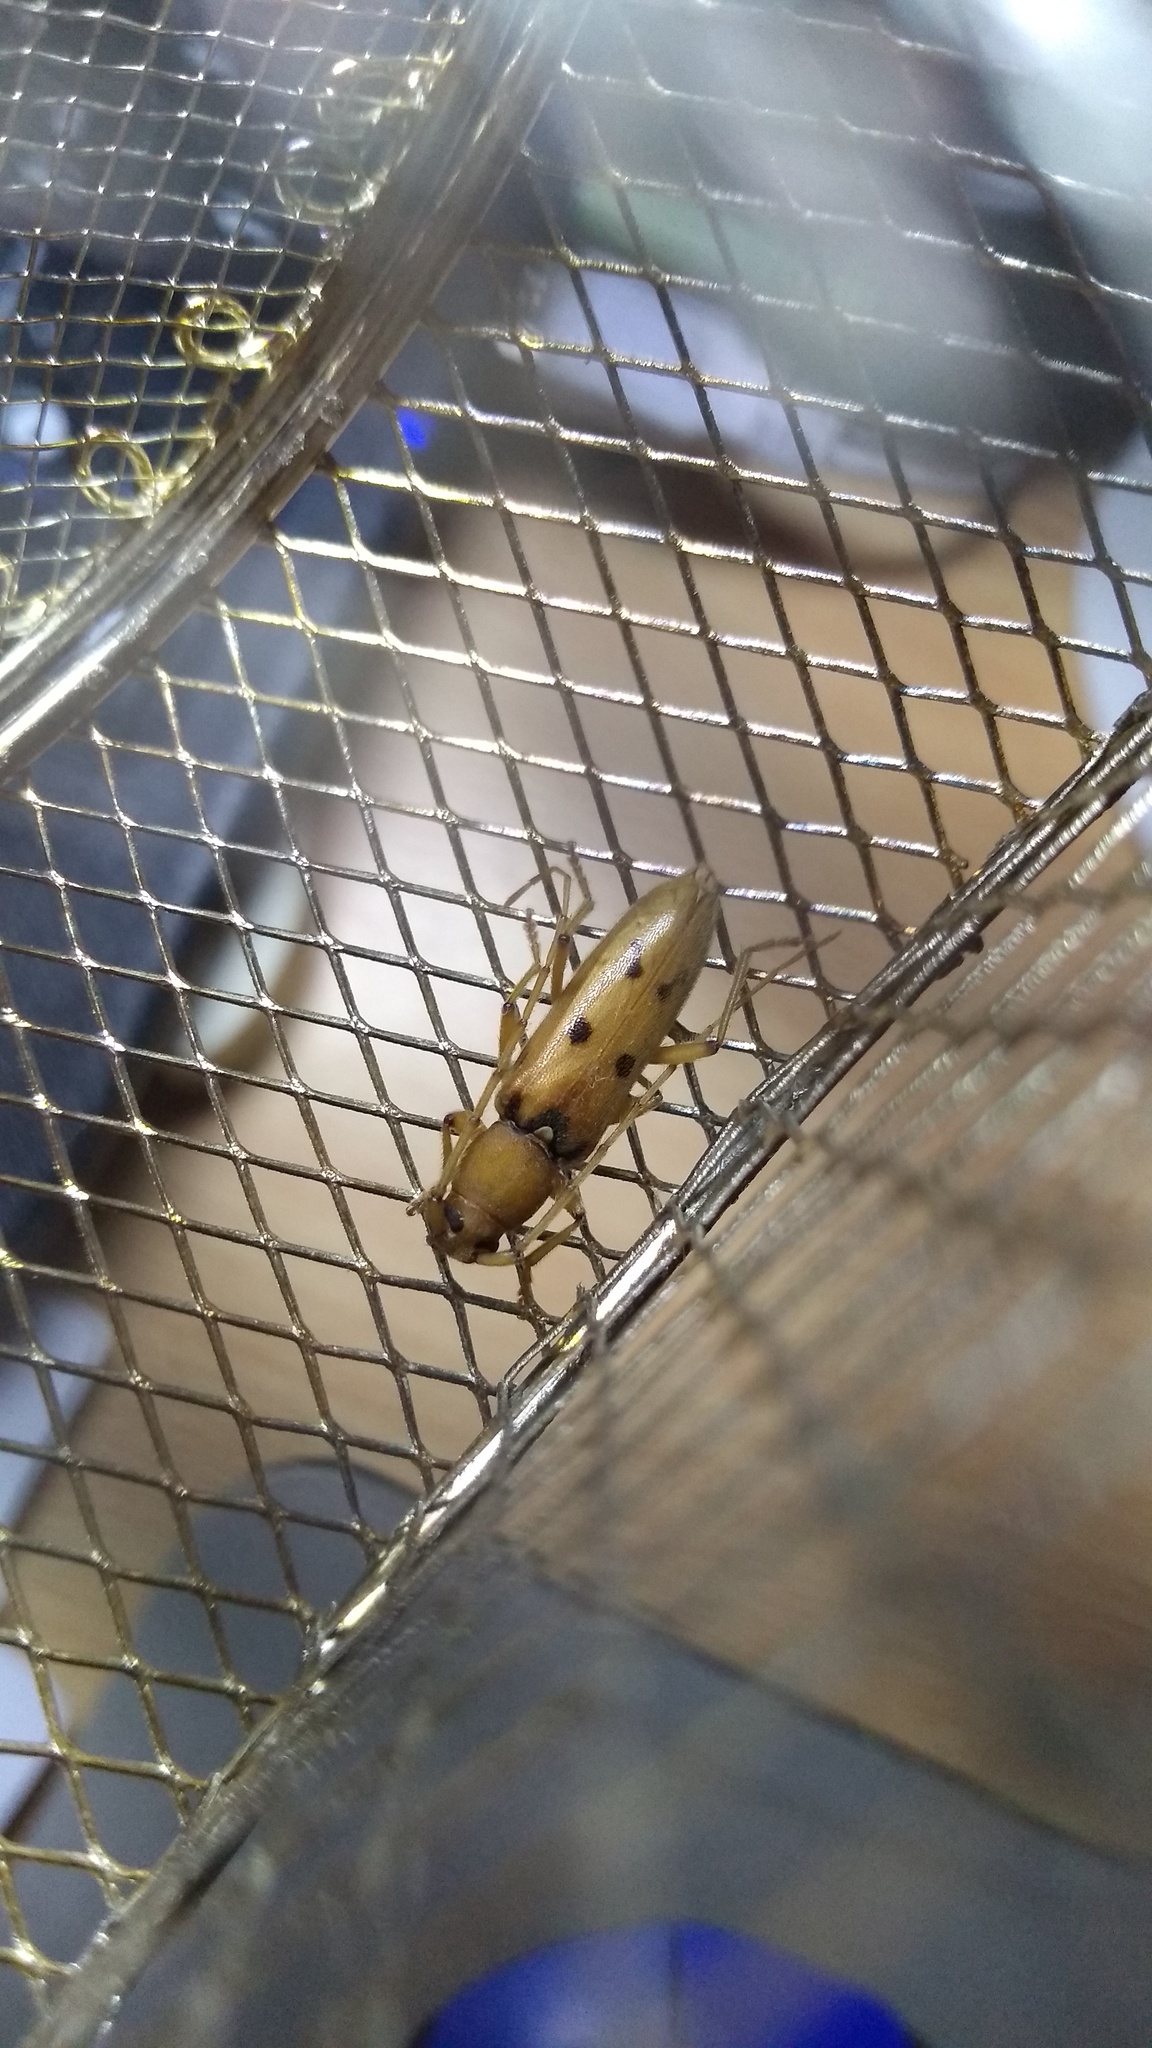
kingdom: Animalia
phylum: Arthropoda
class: Insecta
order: Coleoptera
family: Cerambycidae
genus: Achryson
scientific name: Achryson surinamum
